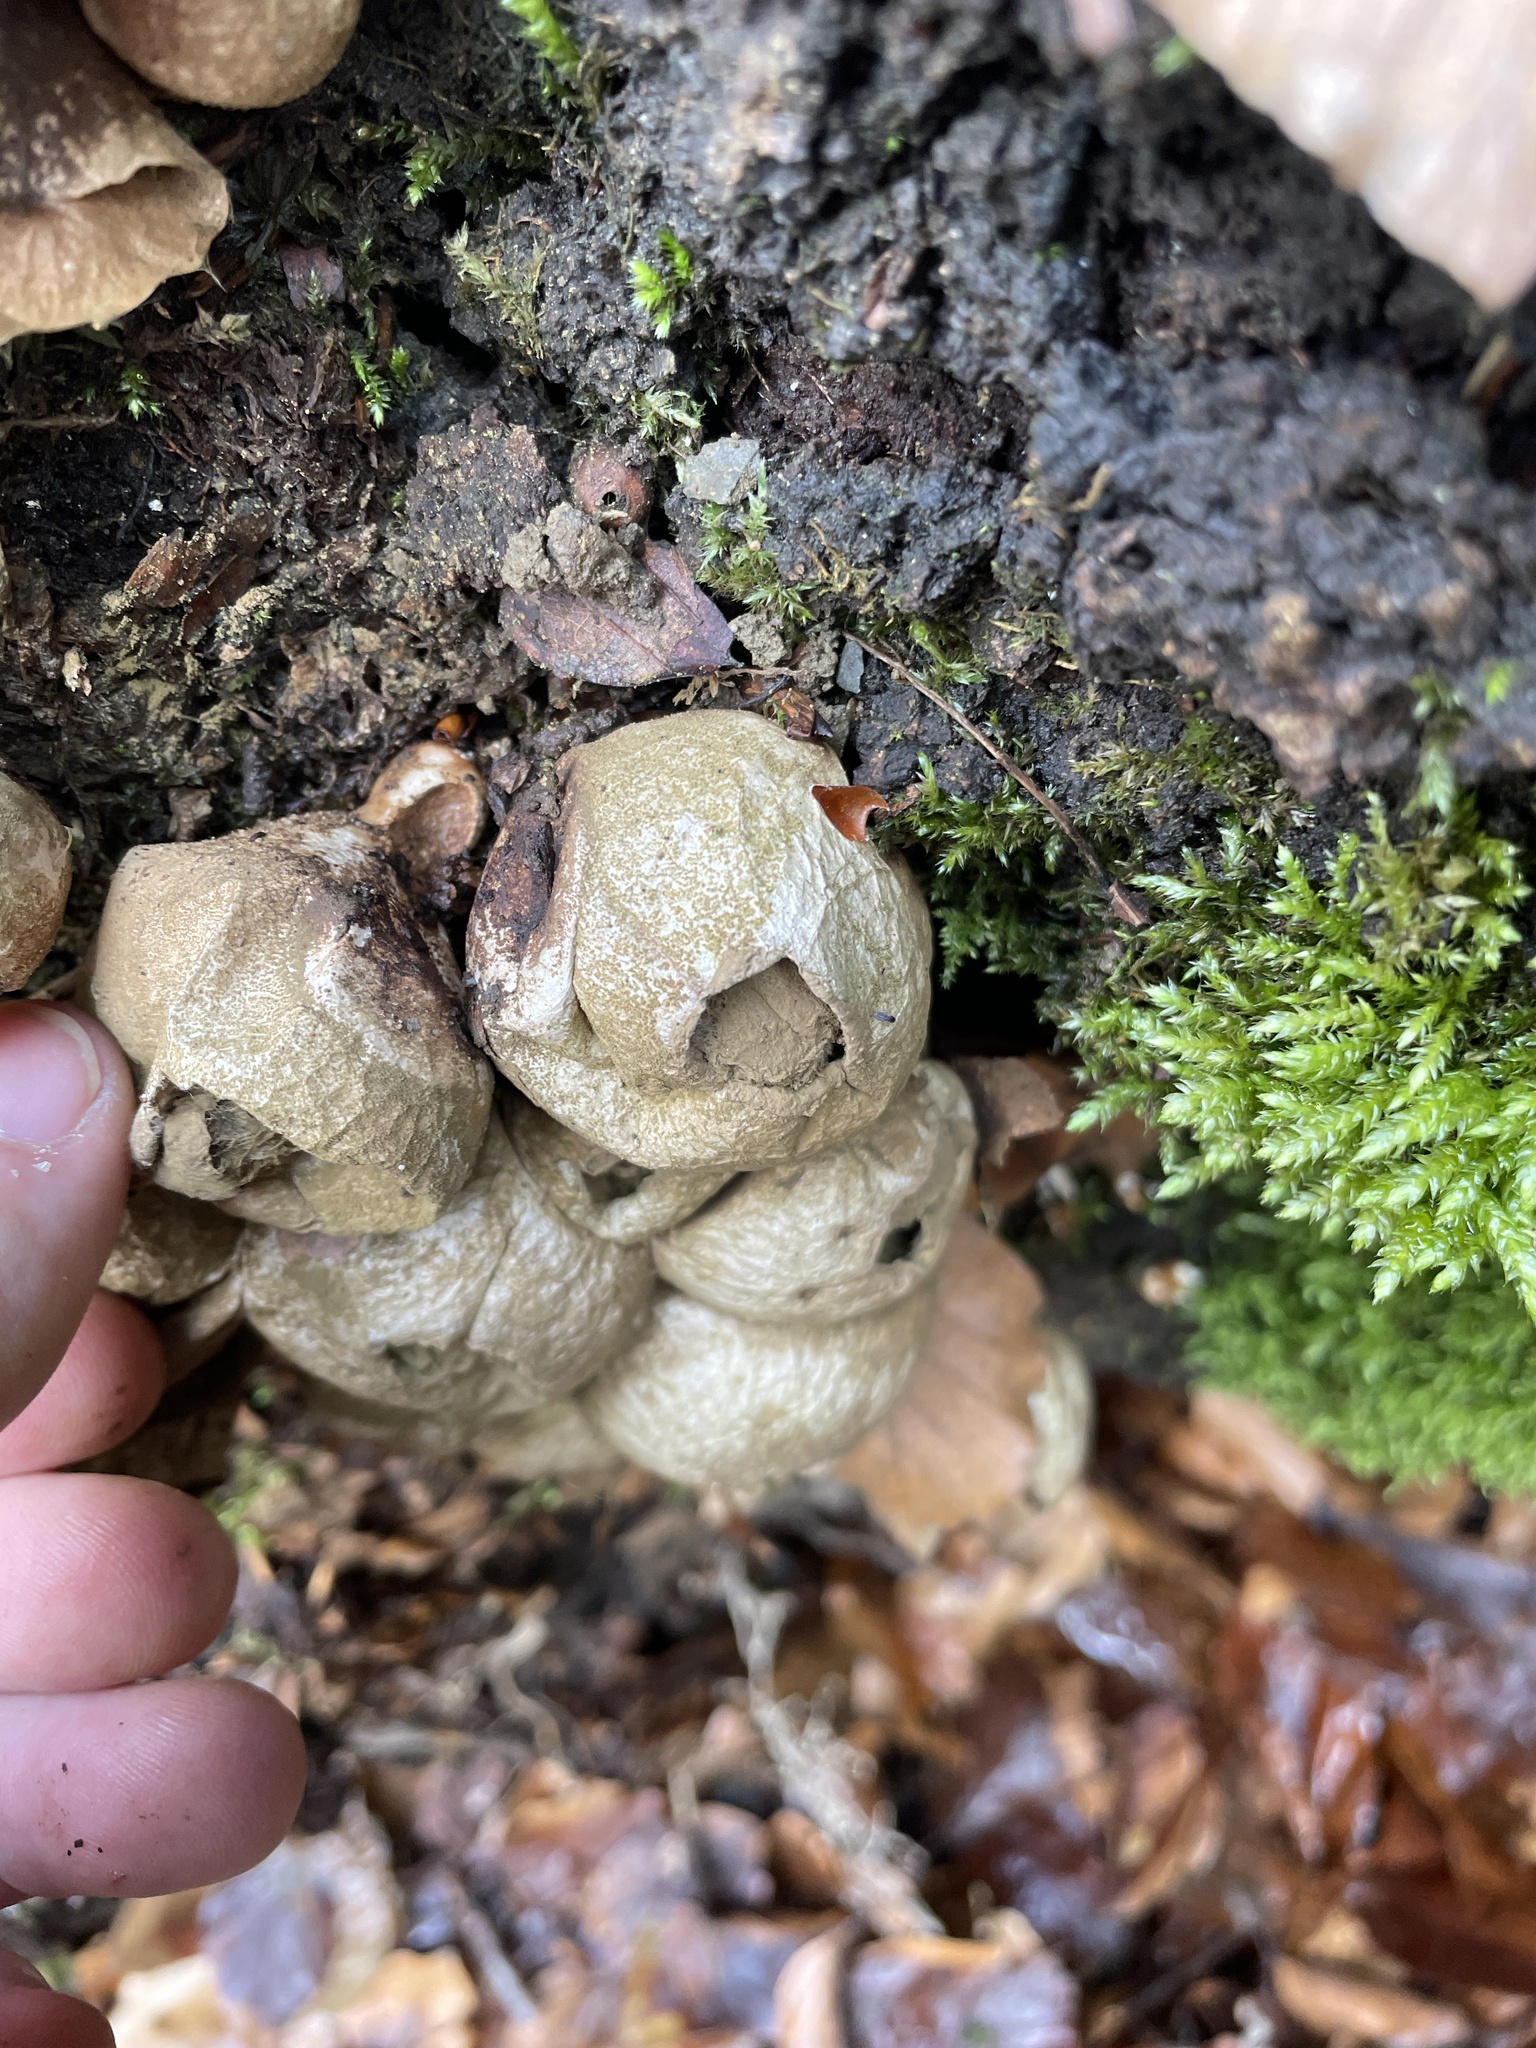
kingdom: Fungi
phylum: Basidiomycota
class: Agaricomycetes
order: Agaricales
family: Lycoperdaceae
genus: Apioperdon
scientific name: Apioperdon pyriforme
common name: Pear-shaped puffball
